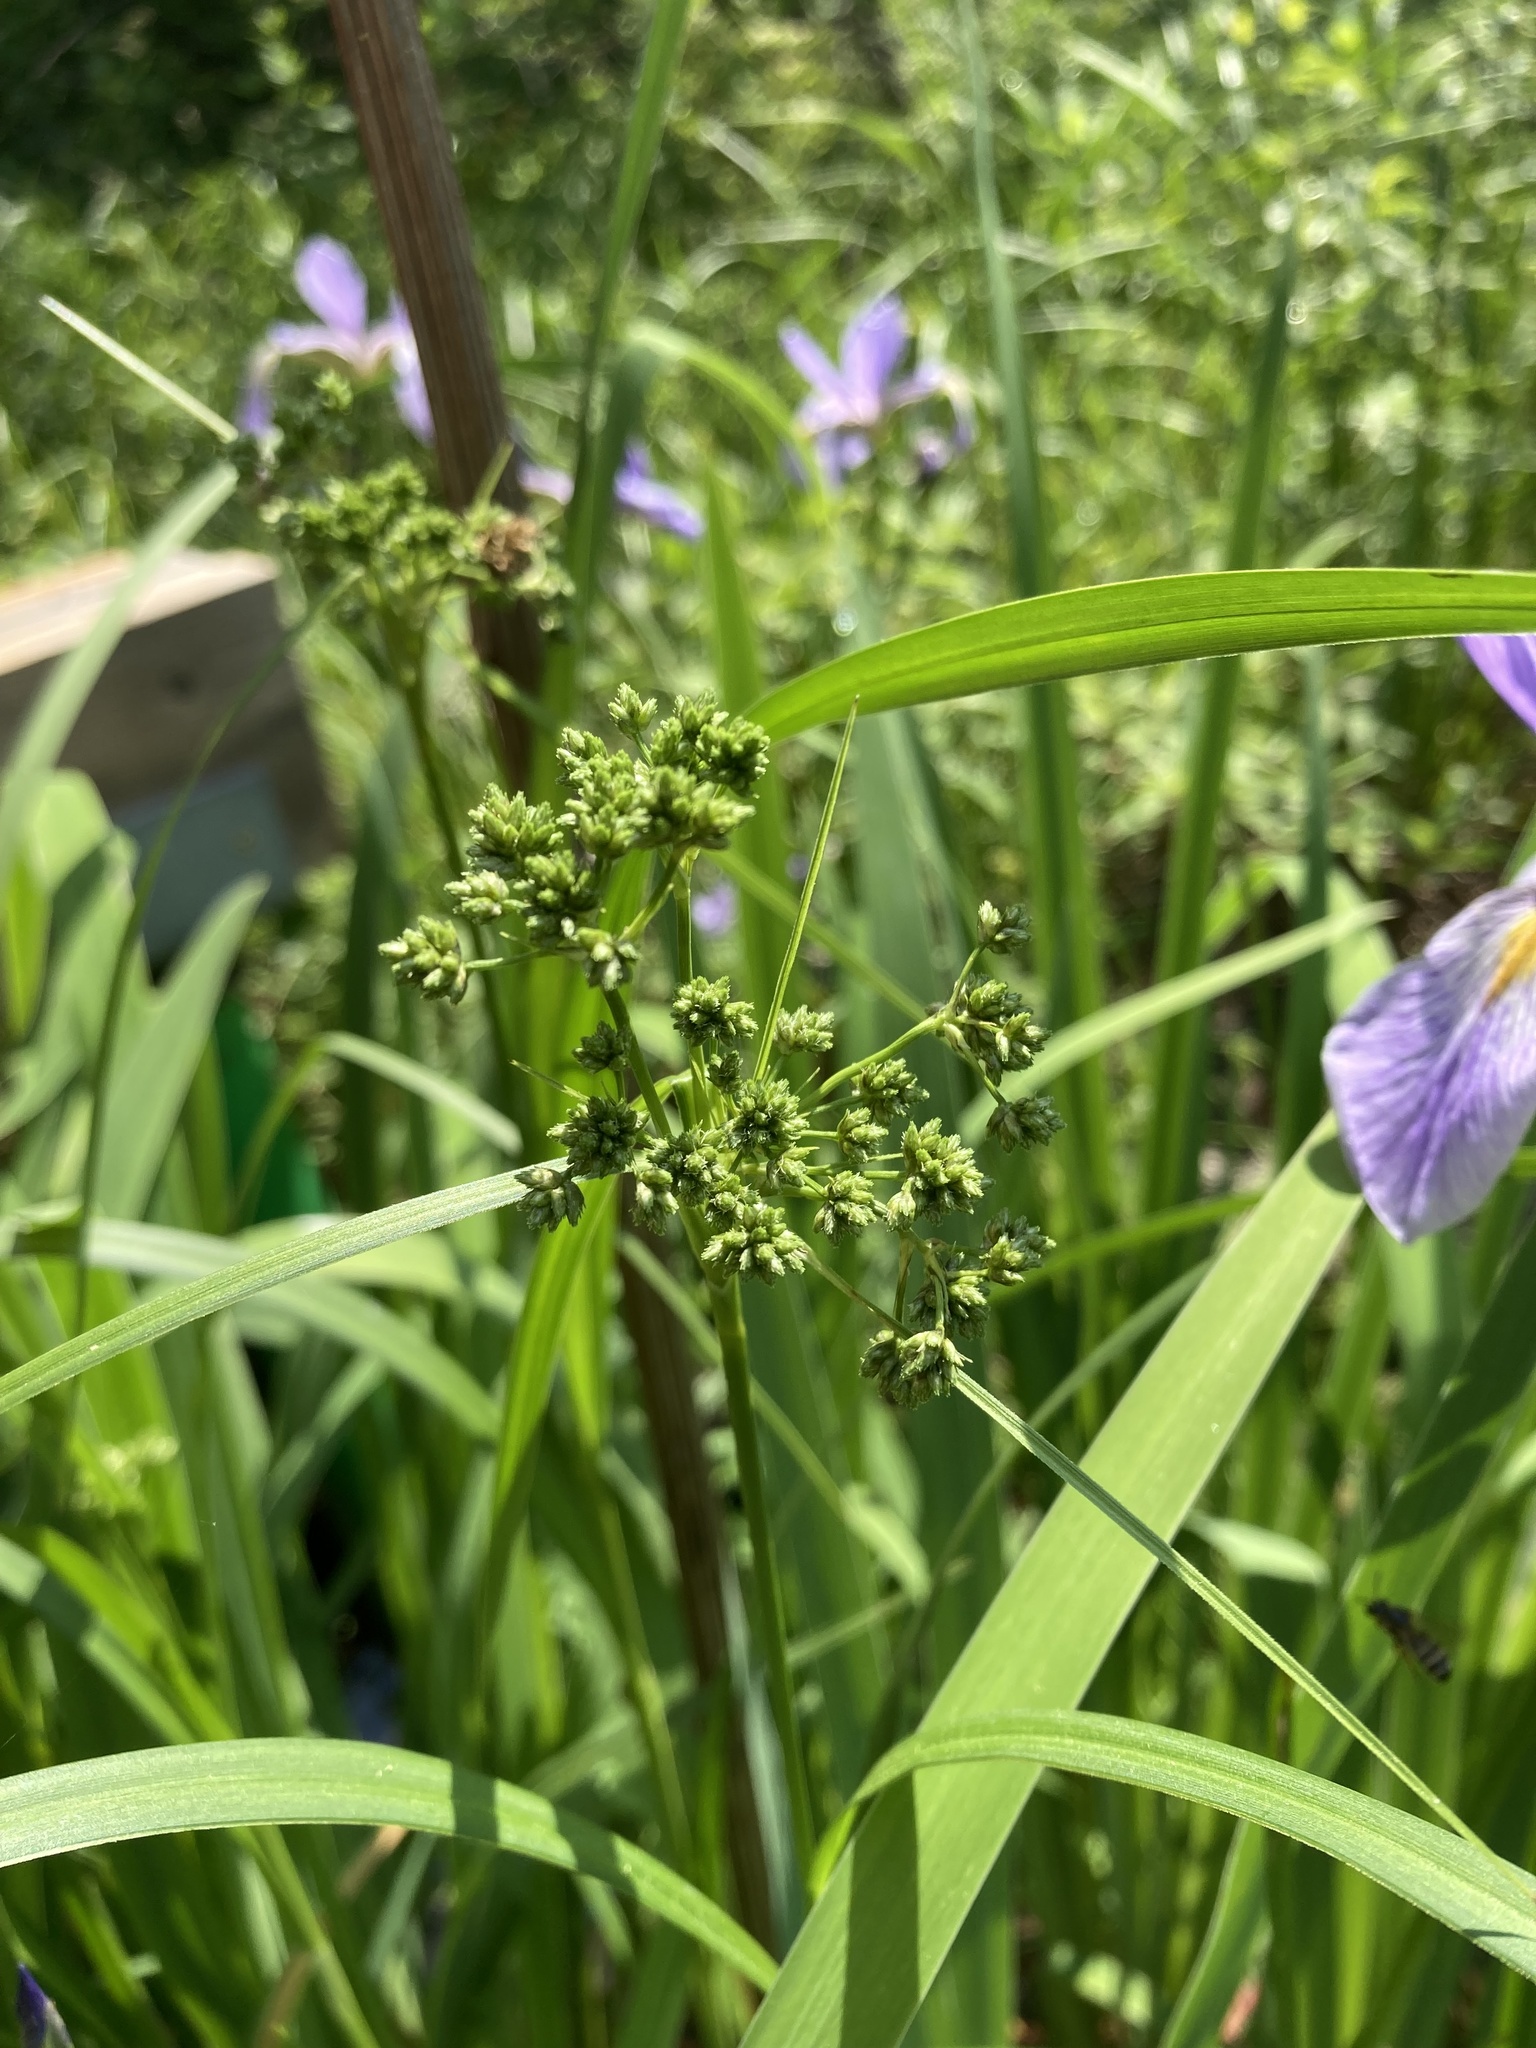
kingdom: Plantae
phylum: Tracheophyta
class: Liliopsida
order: Poales
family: Cyperaceae
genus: Scirpus
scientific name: Scirpus microcarpus
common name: Panicled bulrush
